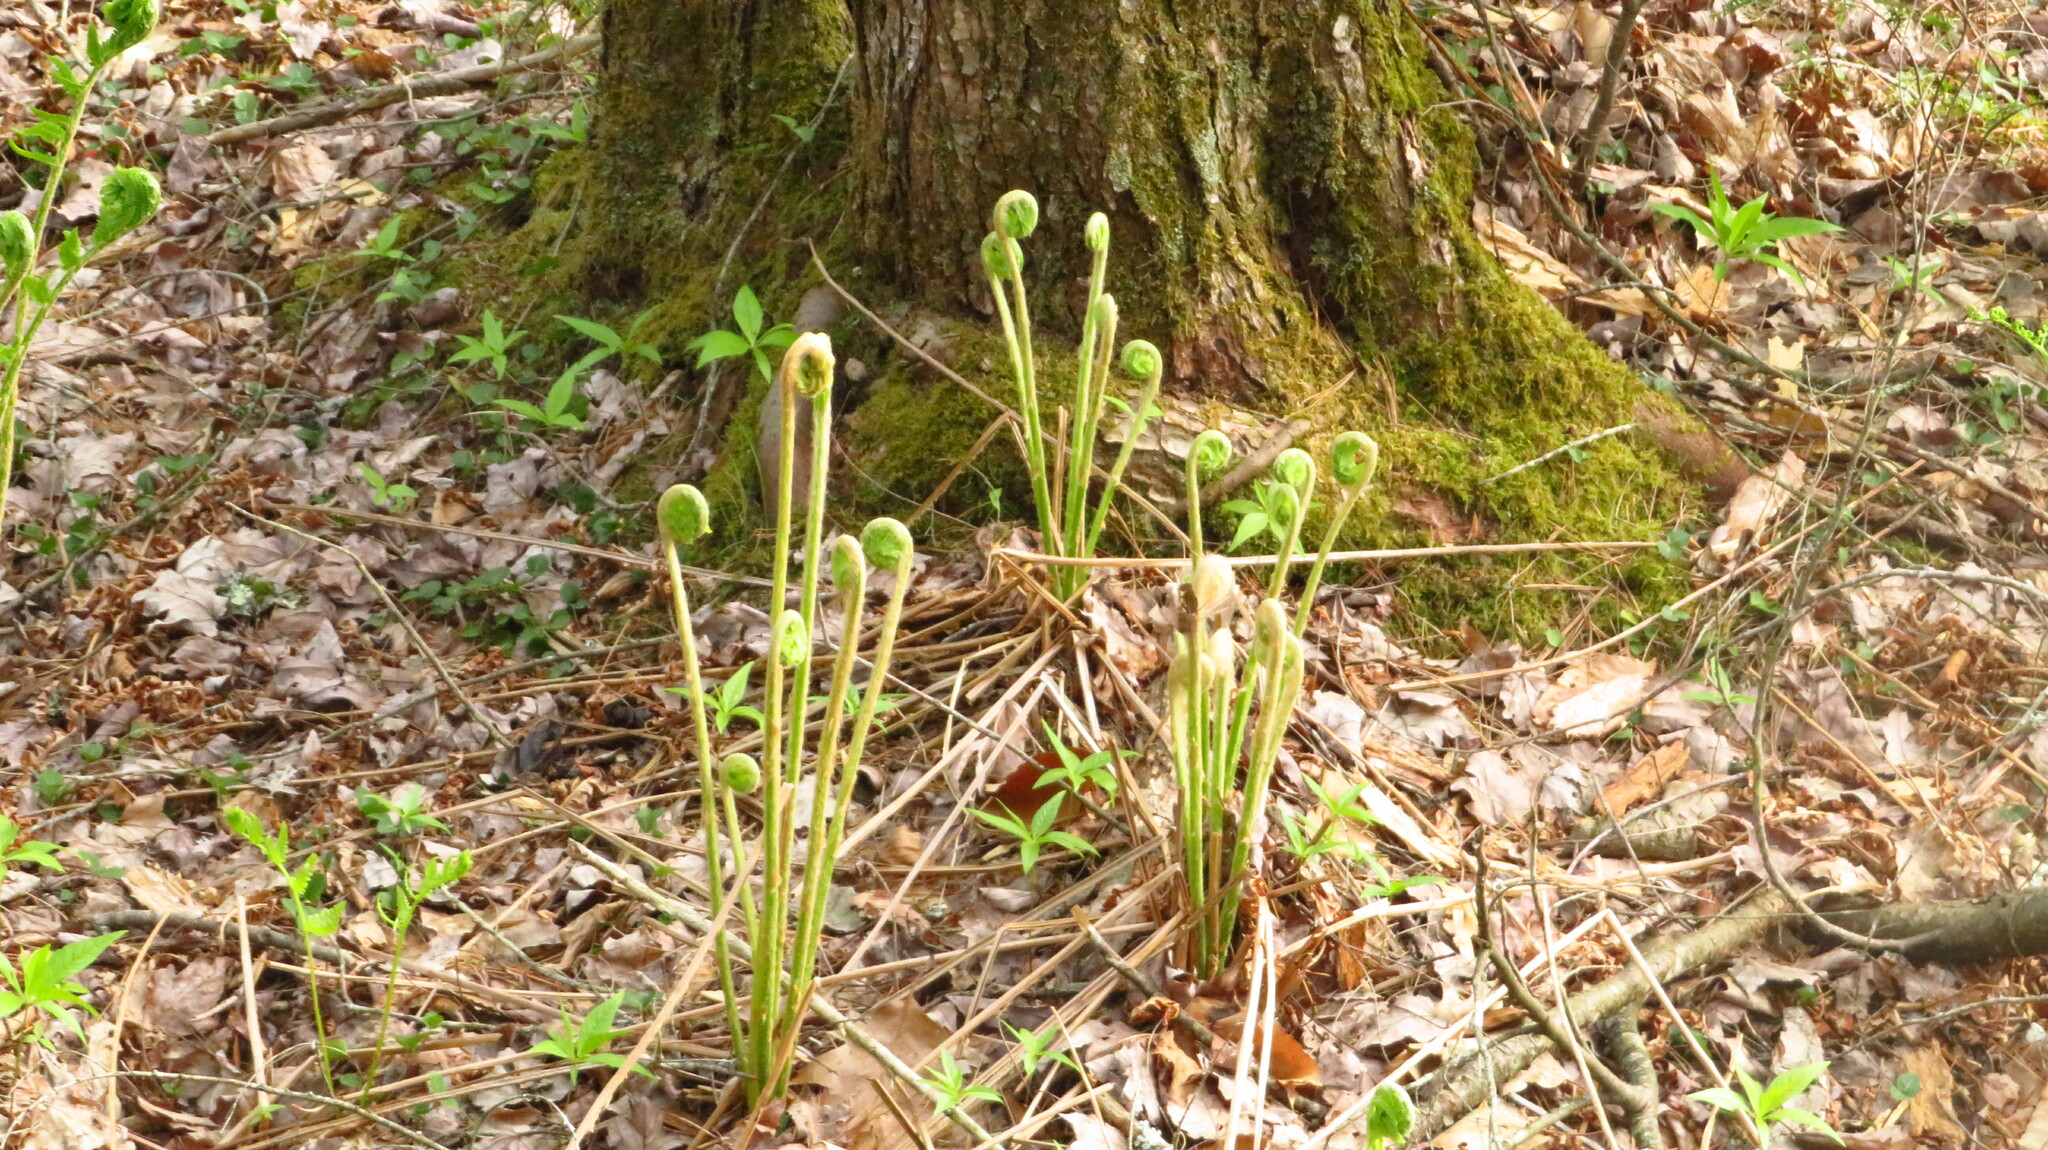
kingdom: Plantae
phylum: Tracheophyta
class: Polypodiopsida
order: Osmundales
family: Osmundaceae
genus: Osmundastrum
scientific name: Osmundastrum cinnamomeum
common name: Cinnamon fern
